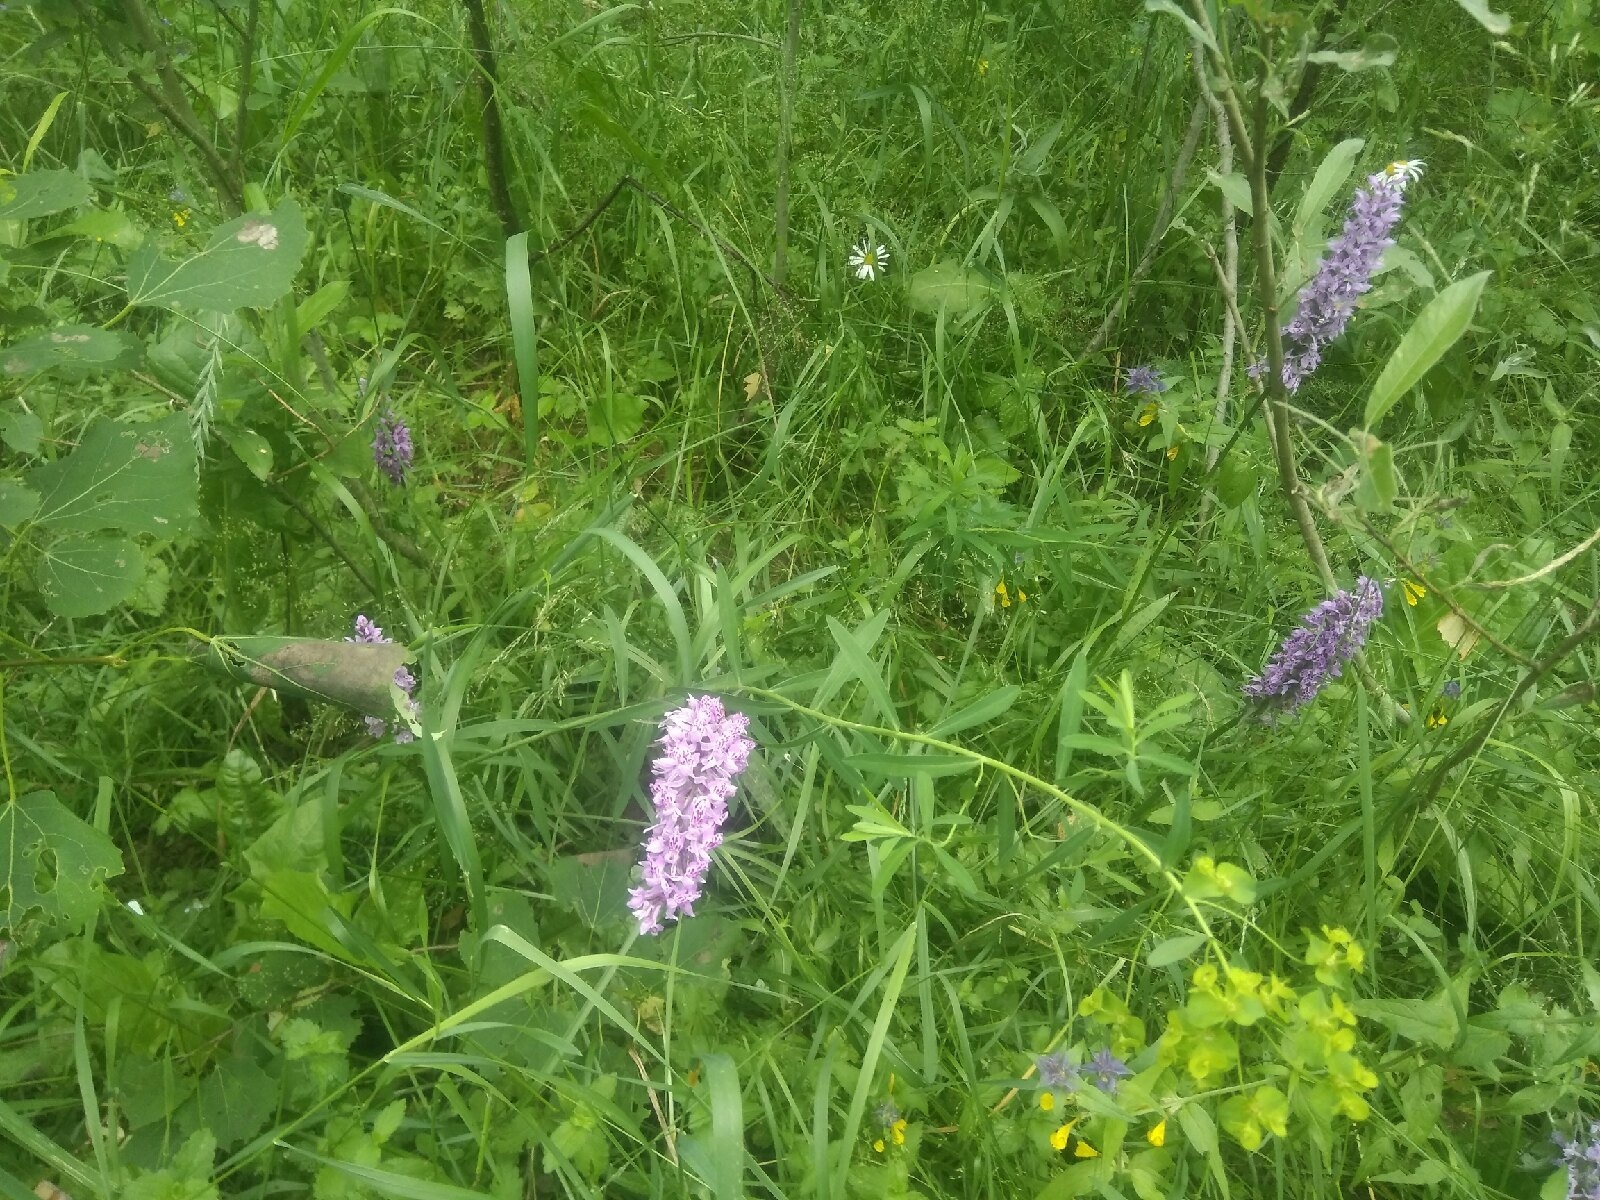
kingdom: Plantae
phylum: Tracheophyta
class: Liliopsida
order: Asparagales
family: Orchidaceae
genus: Dactylorhiza
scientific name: Dactylorhiza maculata
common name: Heath spotted-orchid
